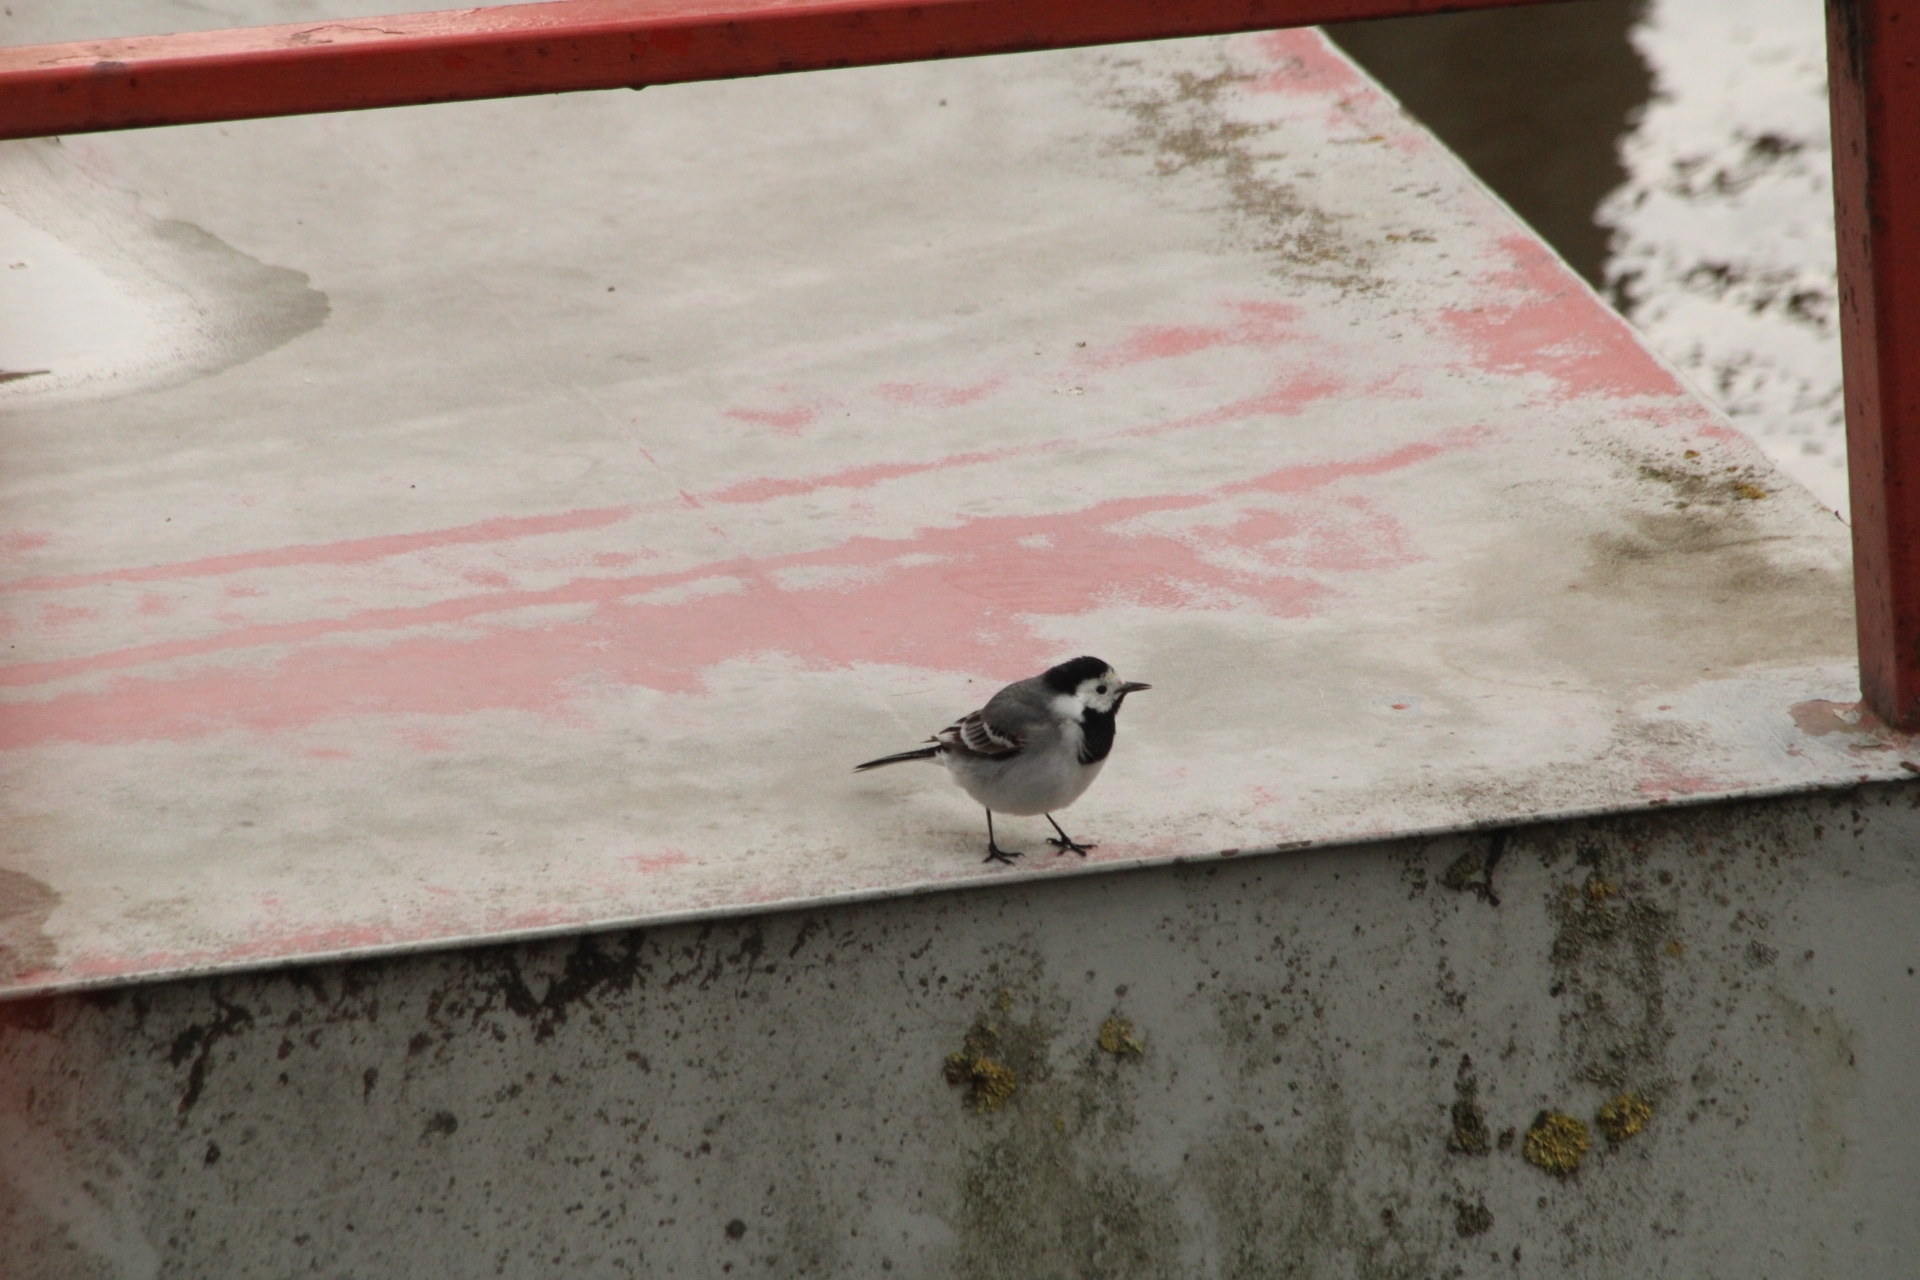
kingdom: Animalia
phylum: Chordata
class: Aves
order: Passeriformes
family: Motacillidae
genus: Motacilla
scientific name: Motacilla alba
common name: White wagtail
